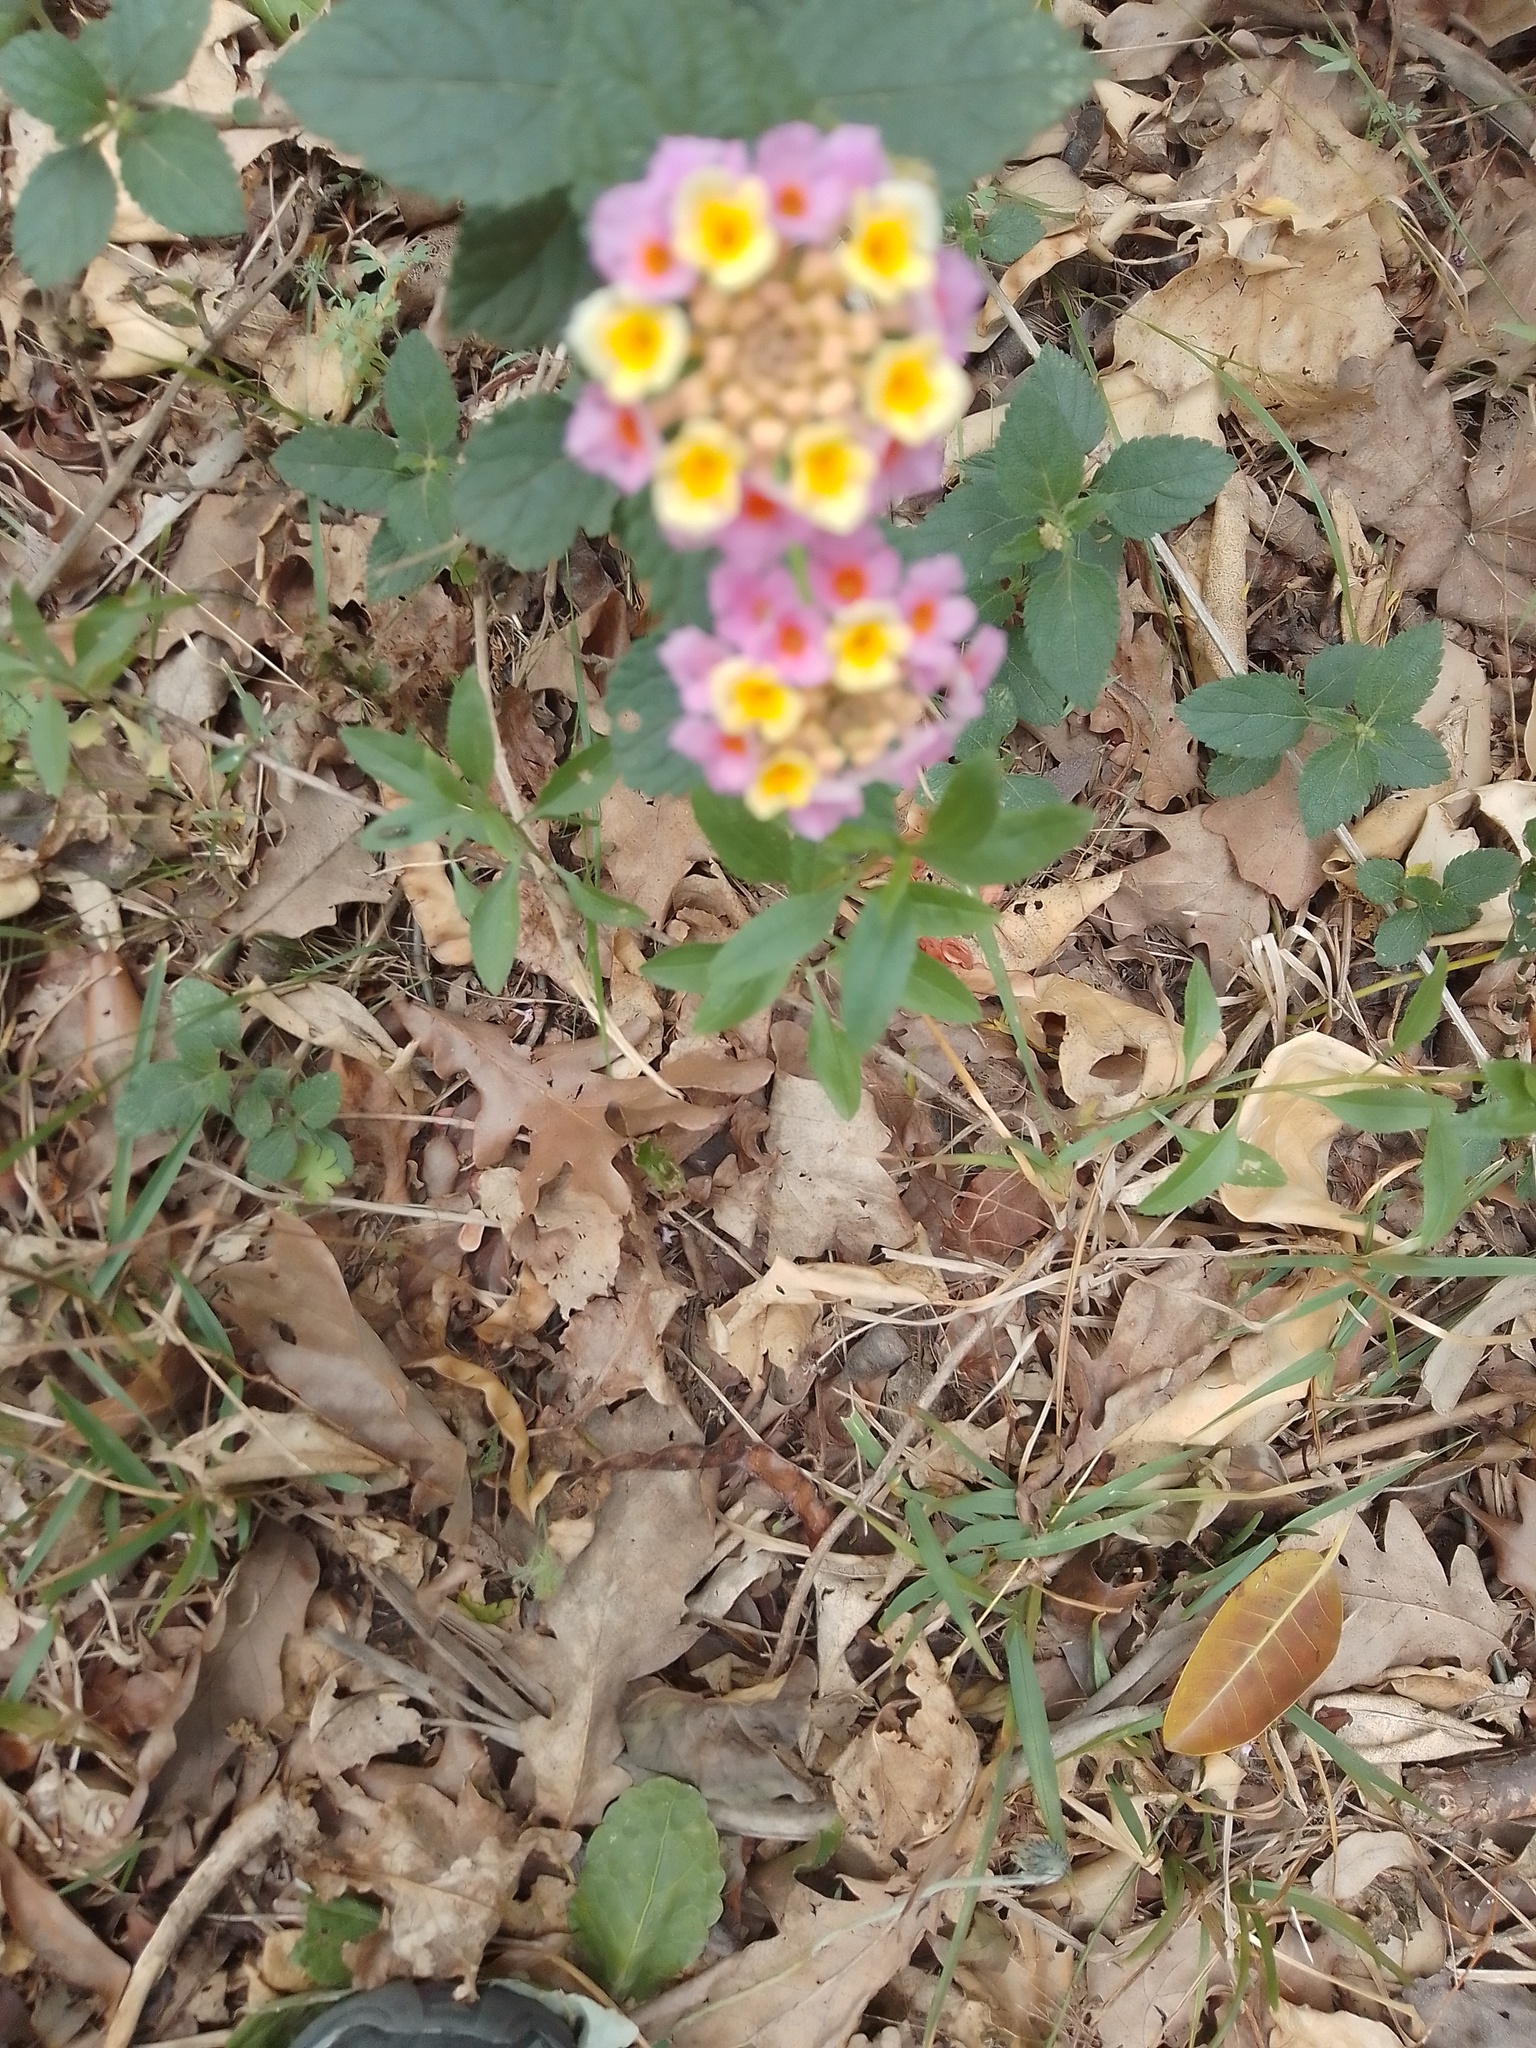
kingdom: Plantae
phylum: Tracheophyta
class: Magnoliopsida
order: Lamiales
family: Verbenaceae
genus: Lantana
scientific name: Lantana camara
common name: Lantana
